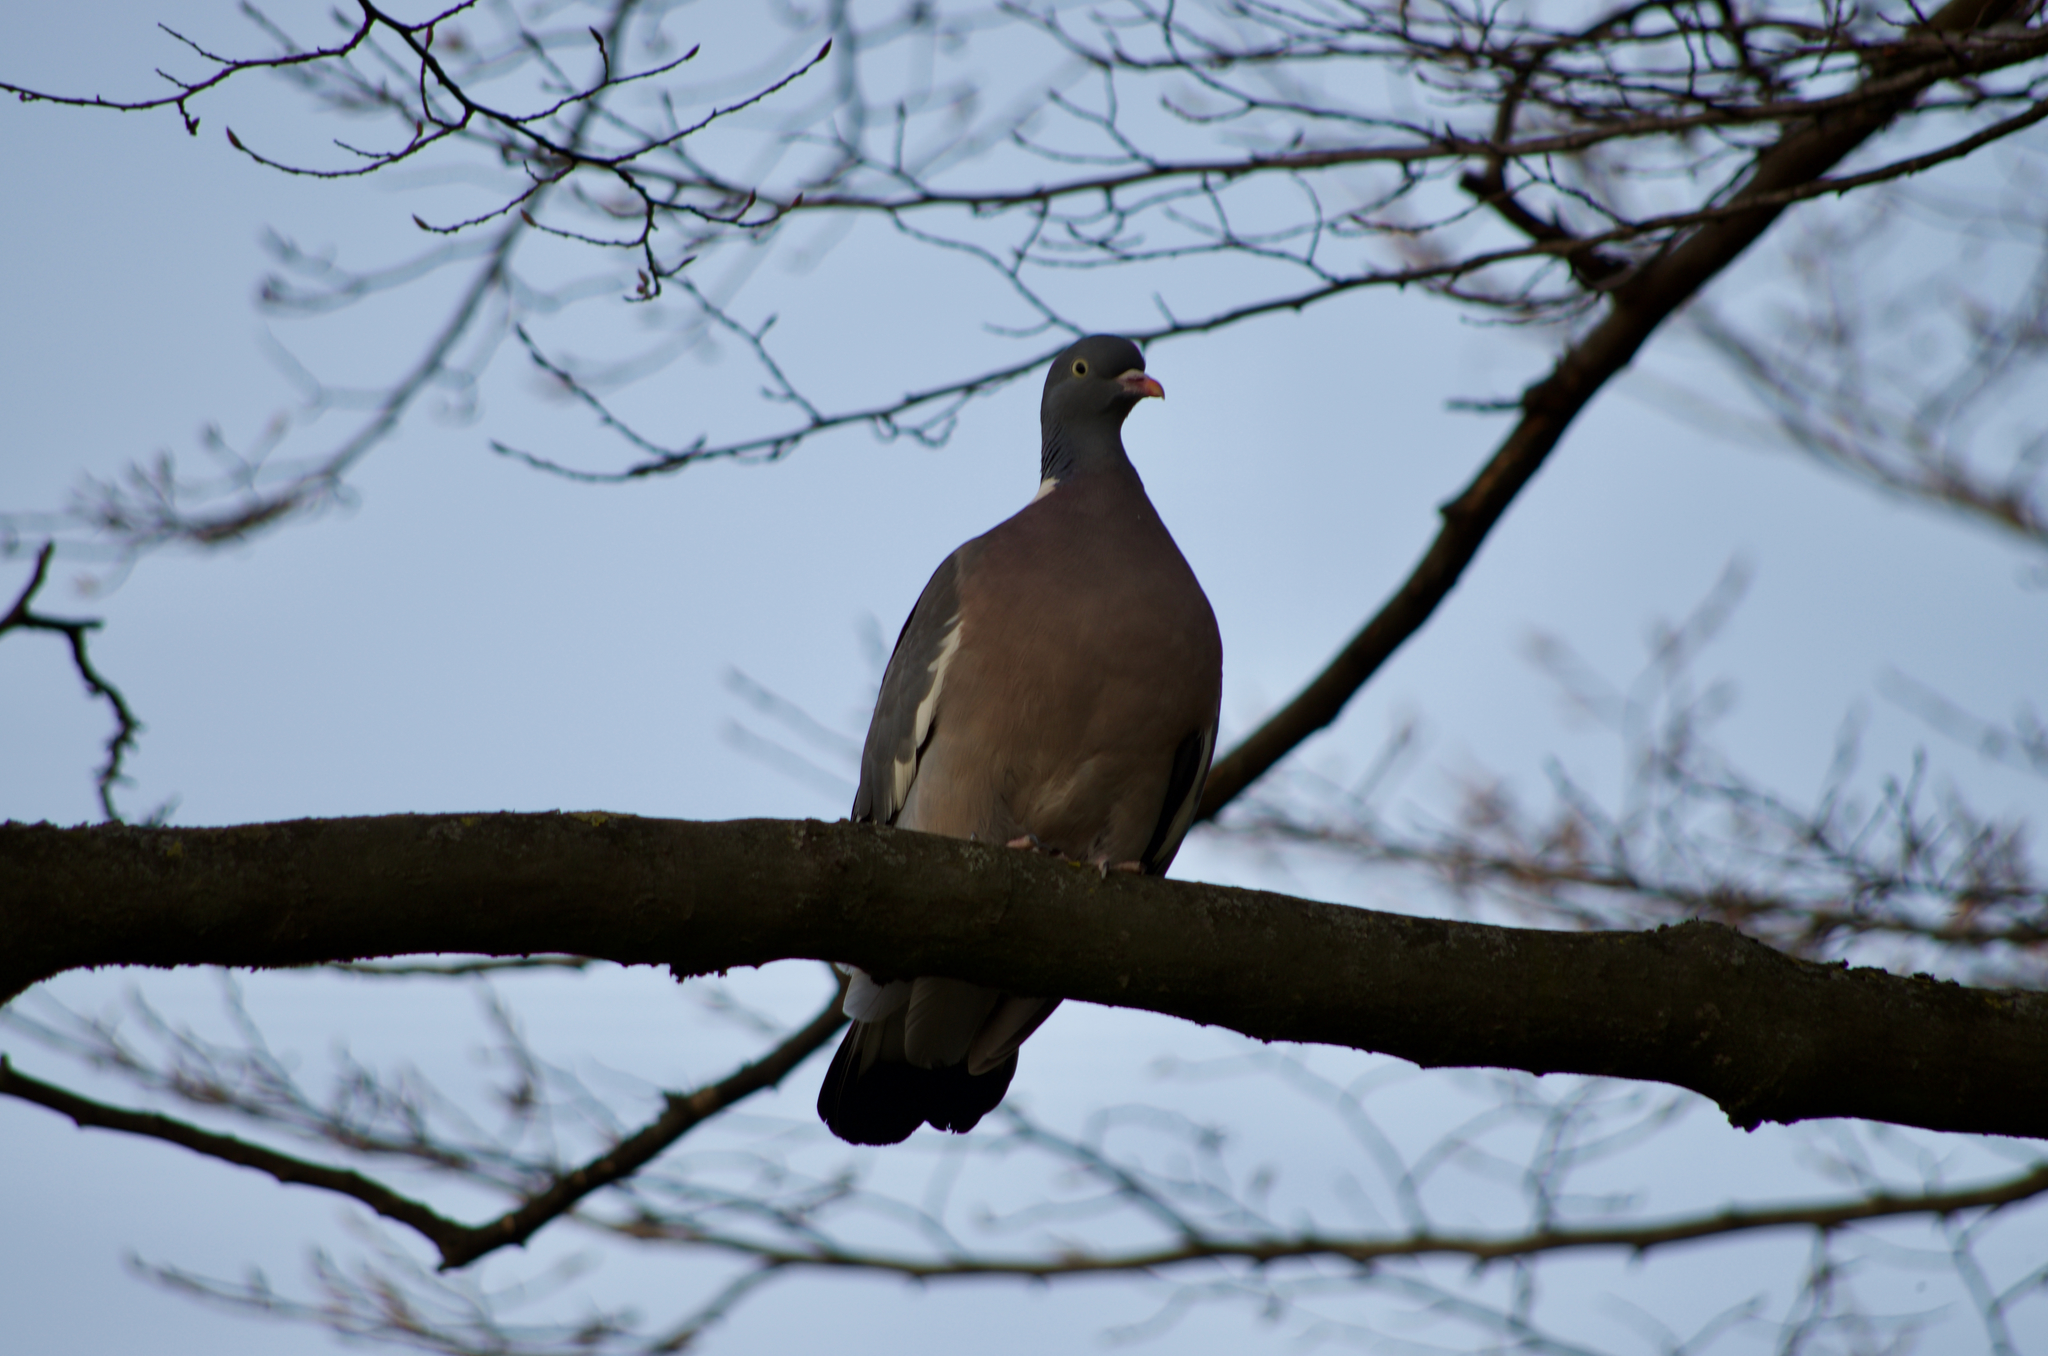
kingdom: Animalia
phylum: Chordata
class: Aves
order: Columbiformes
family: Columbidae
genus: Columba
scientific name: Columba palumbus
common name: Common wood pigeon
